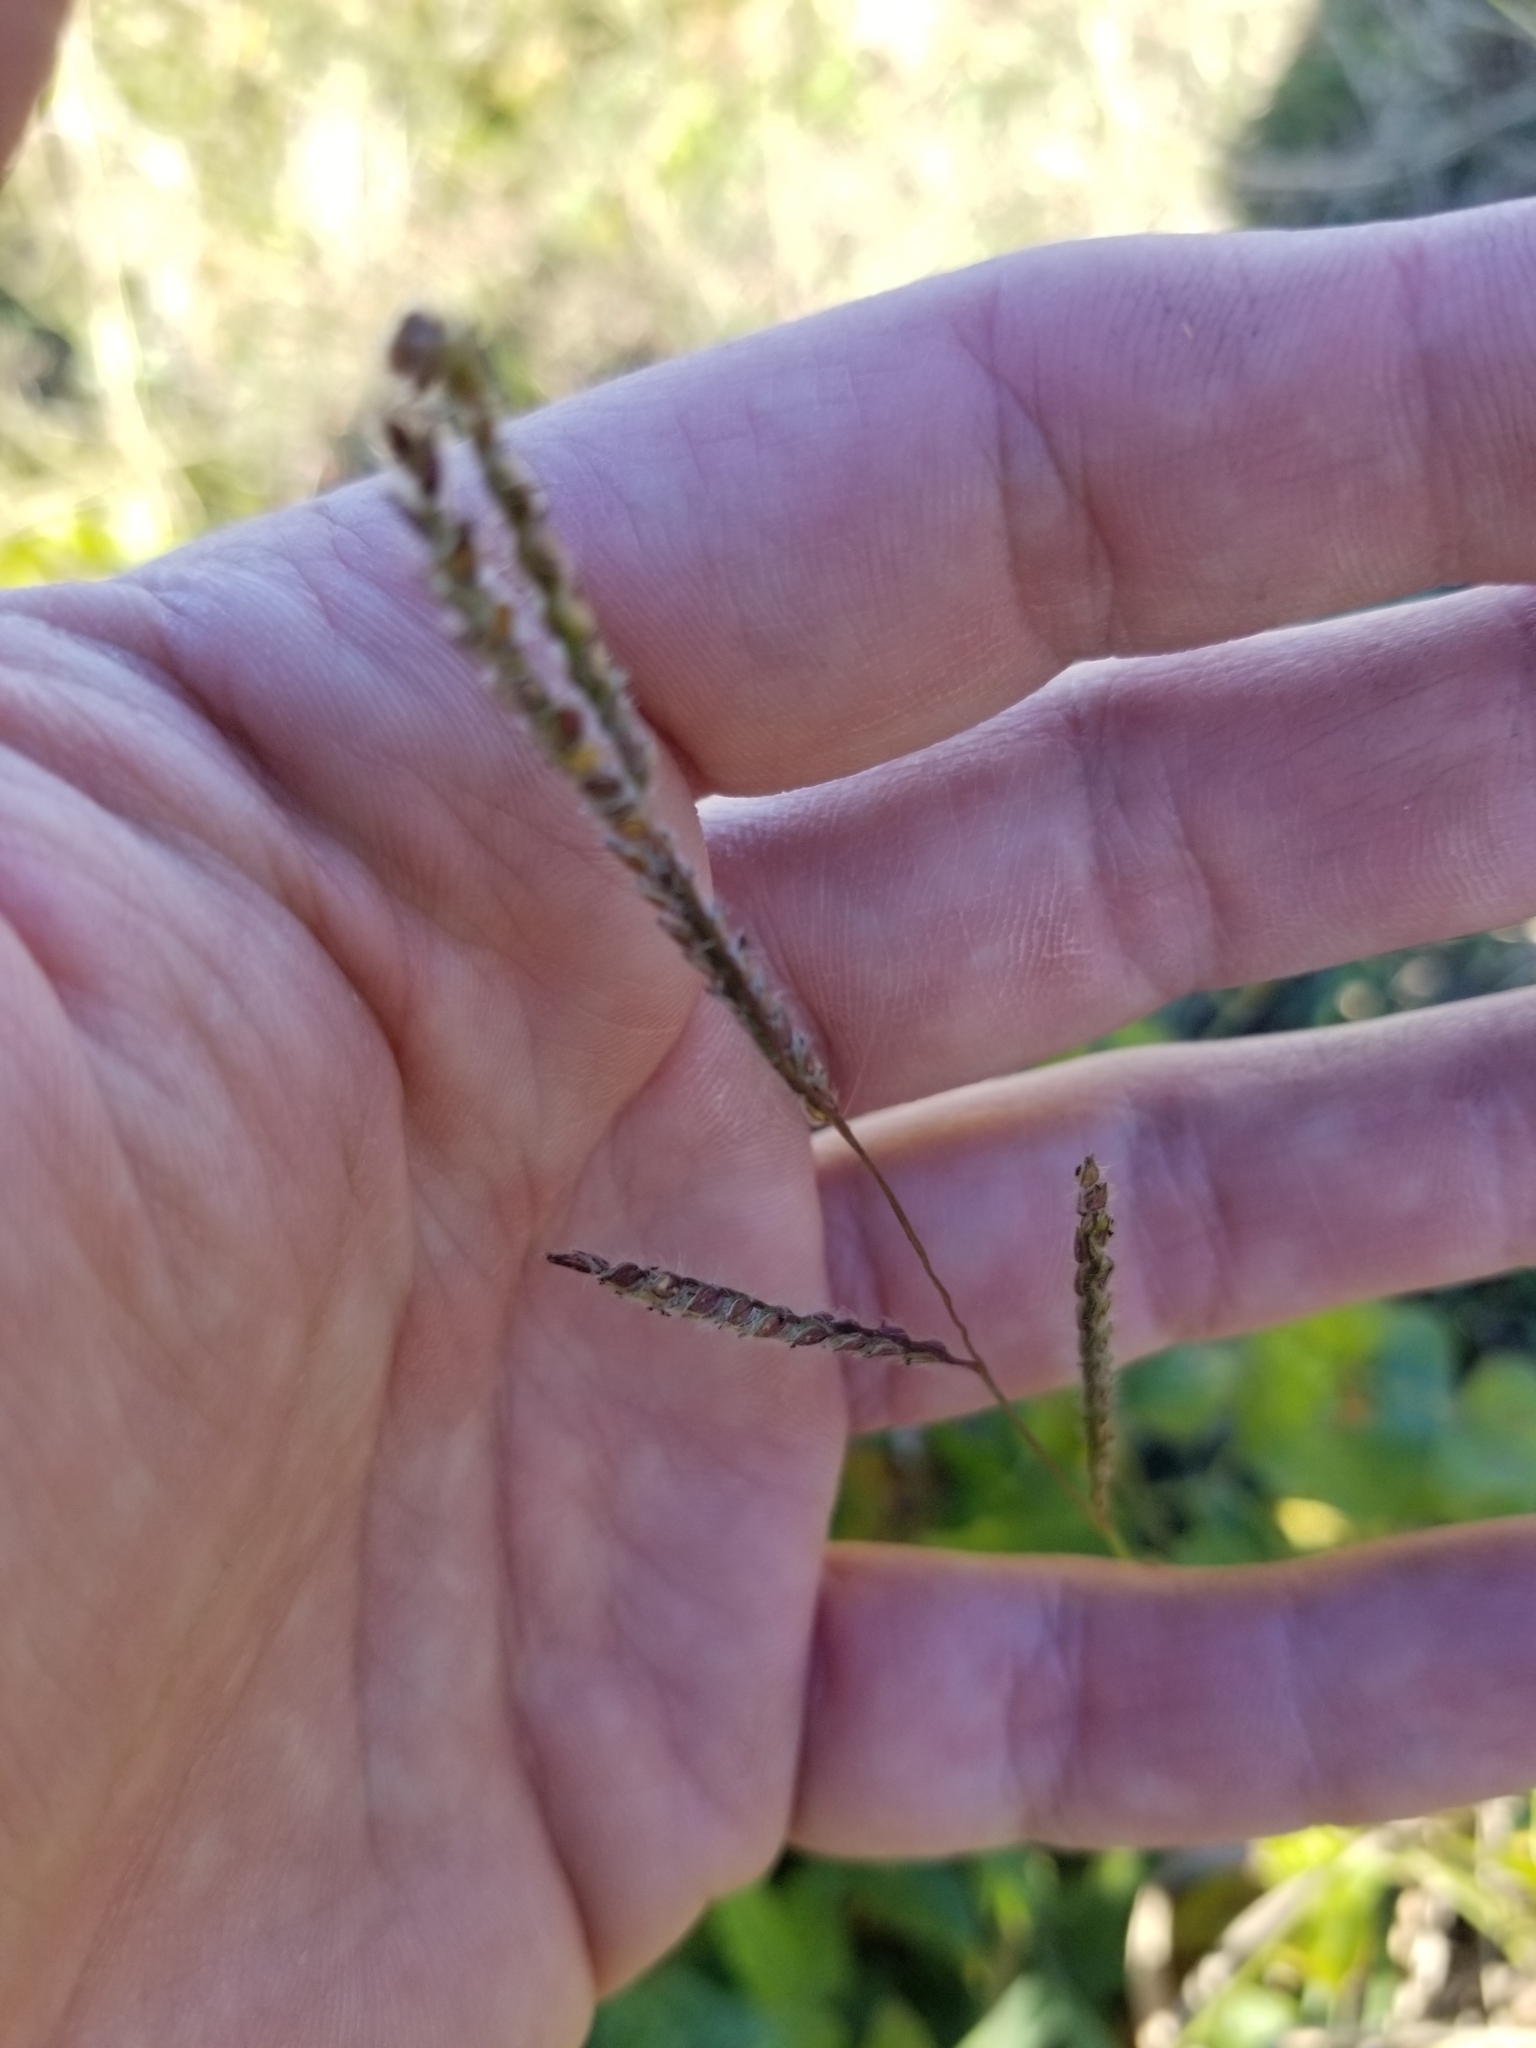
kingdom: Plantae
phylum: Tracheophyta
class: Liliopsida
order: Poales
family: Poaceae
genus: Paspalum
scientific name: Paspalum dilatatum
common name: Dallisgrass
